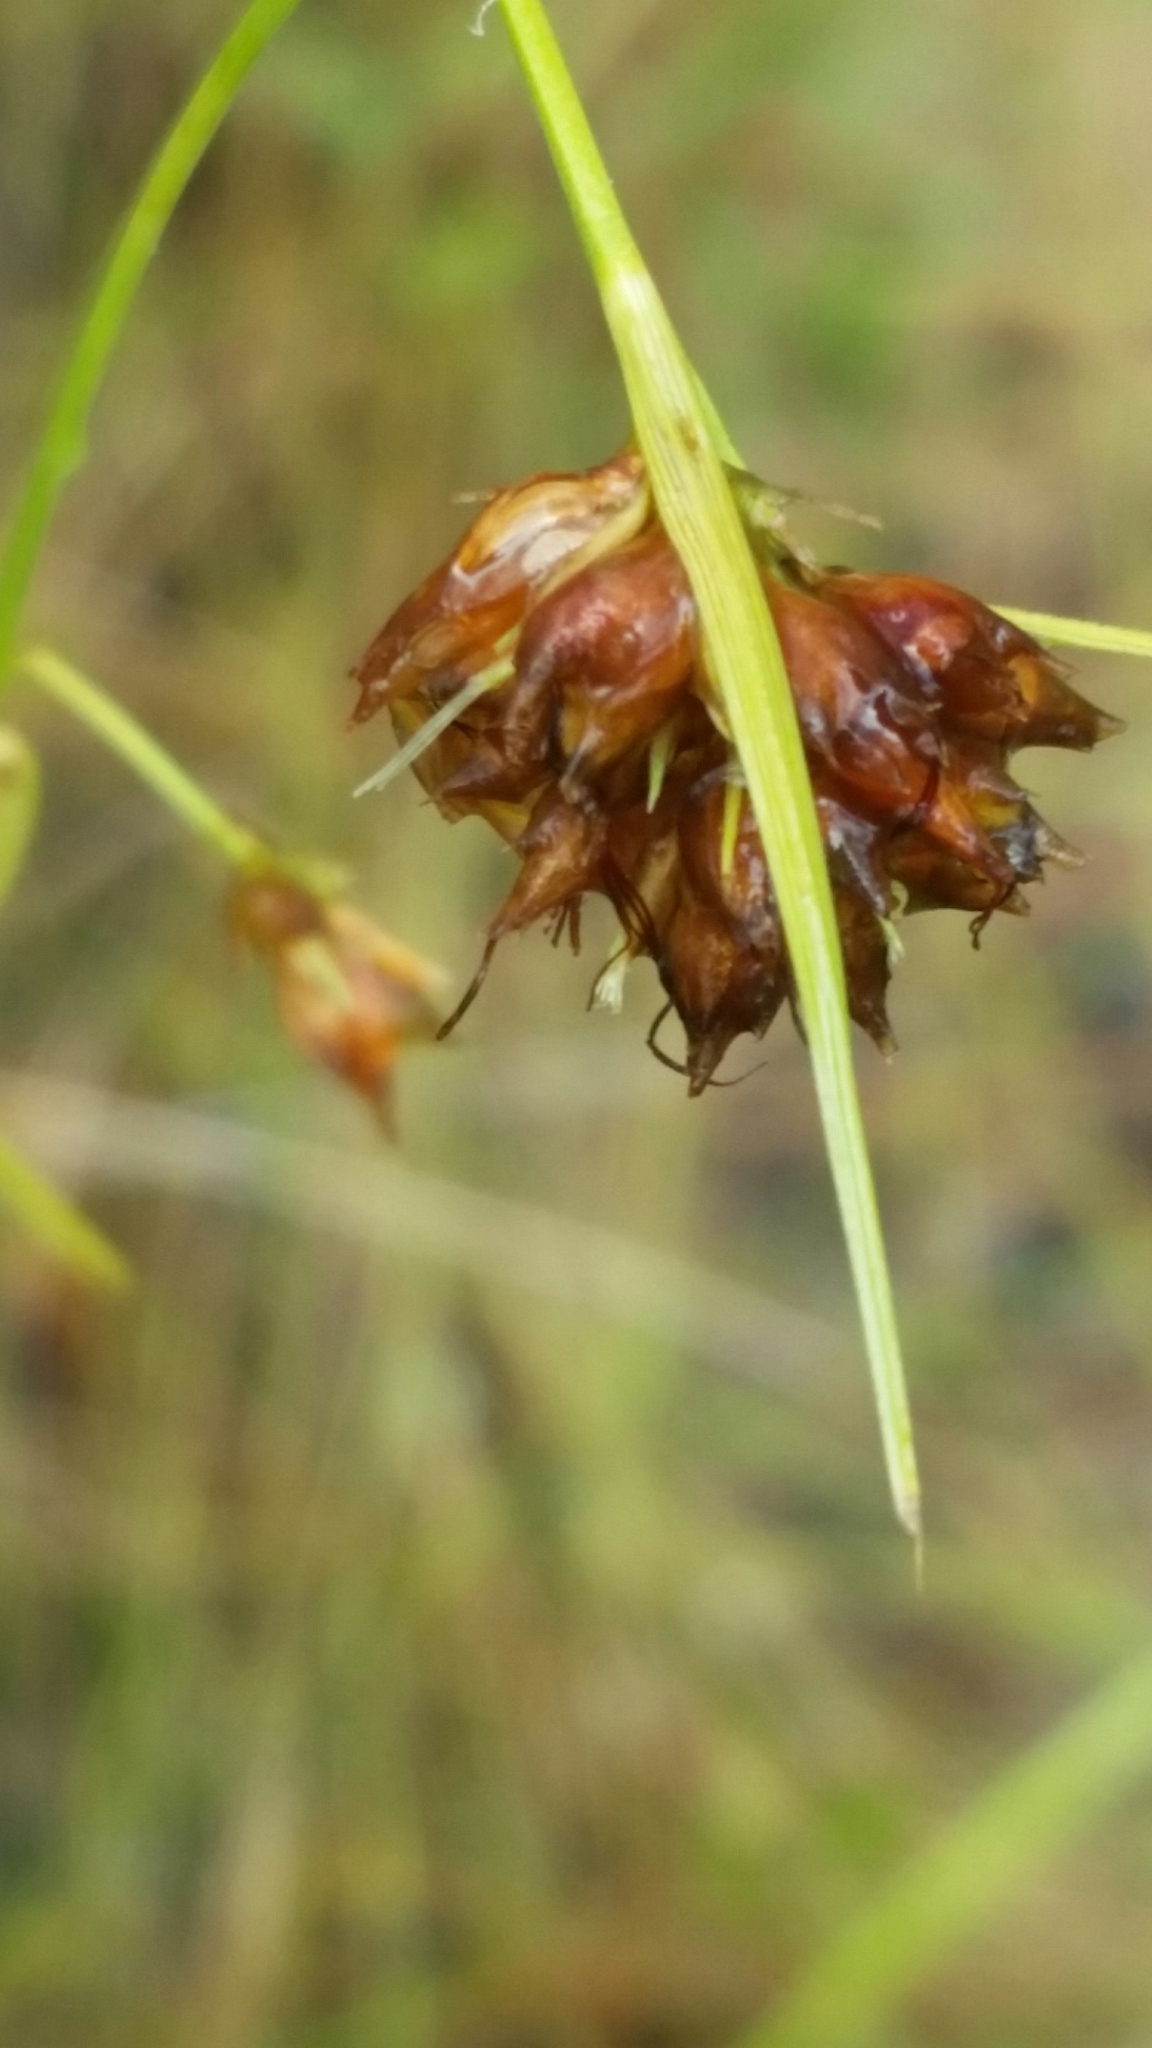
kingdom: Plantae
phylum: Tracheophyta
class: Liliopsida
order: Poales
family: Cyperaceae
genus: Rhynchospora
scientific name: Rhynchospora grayi
